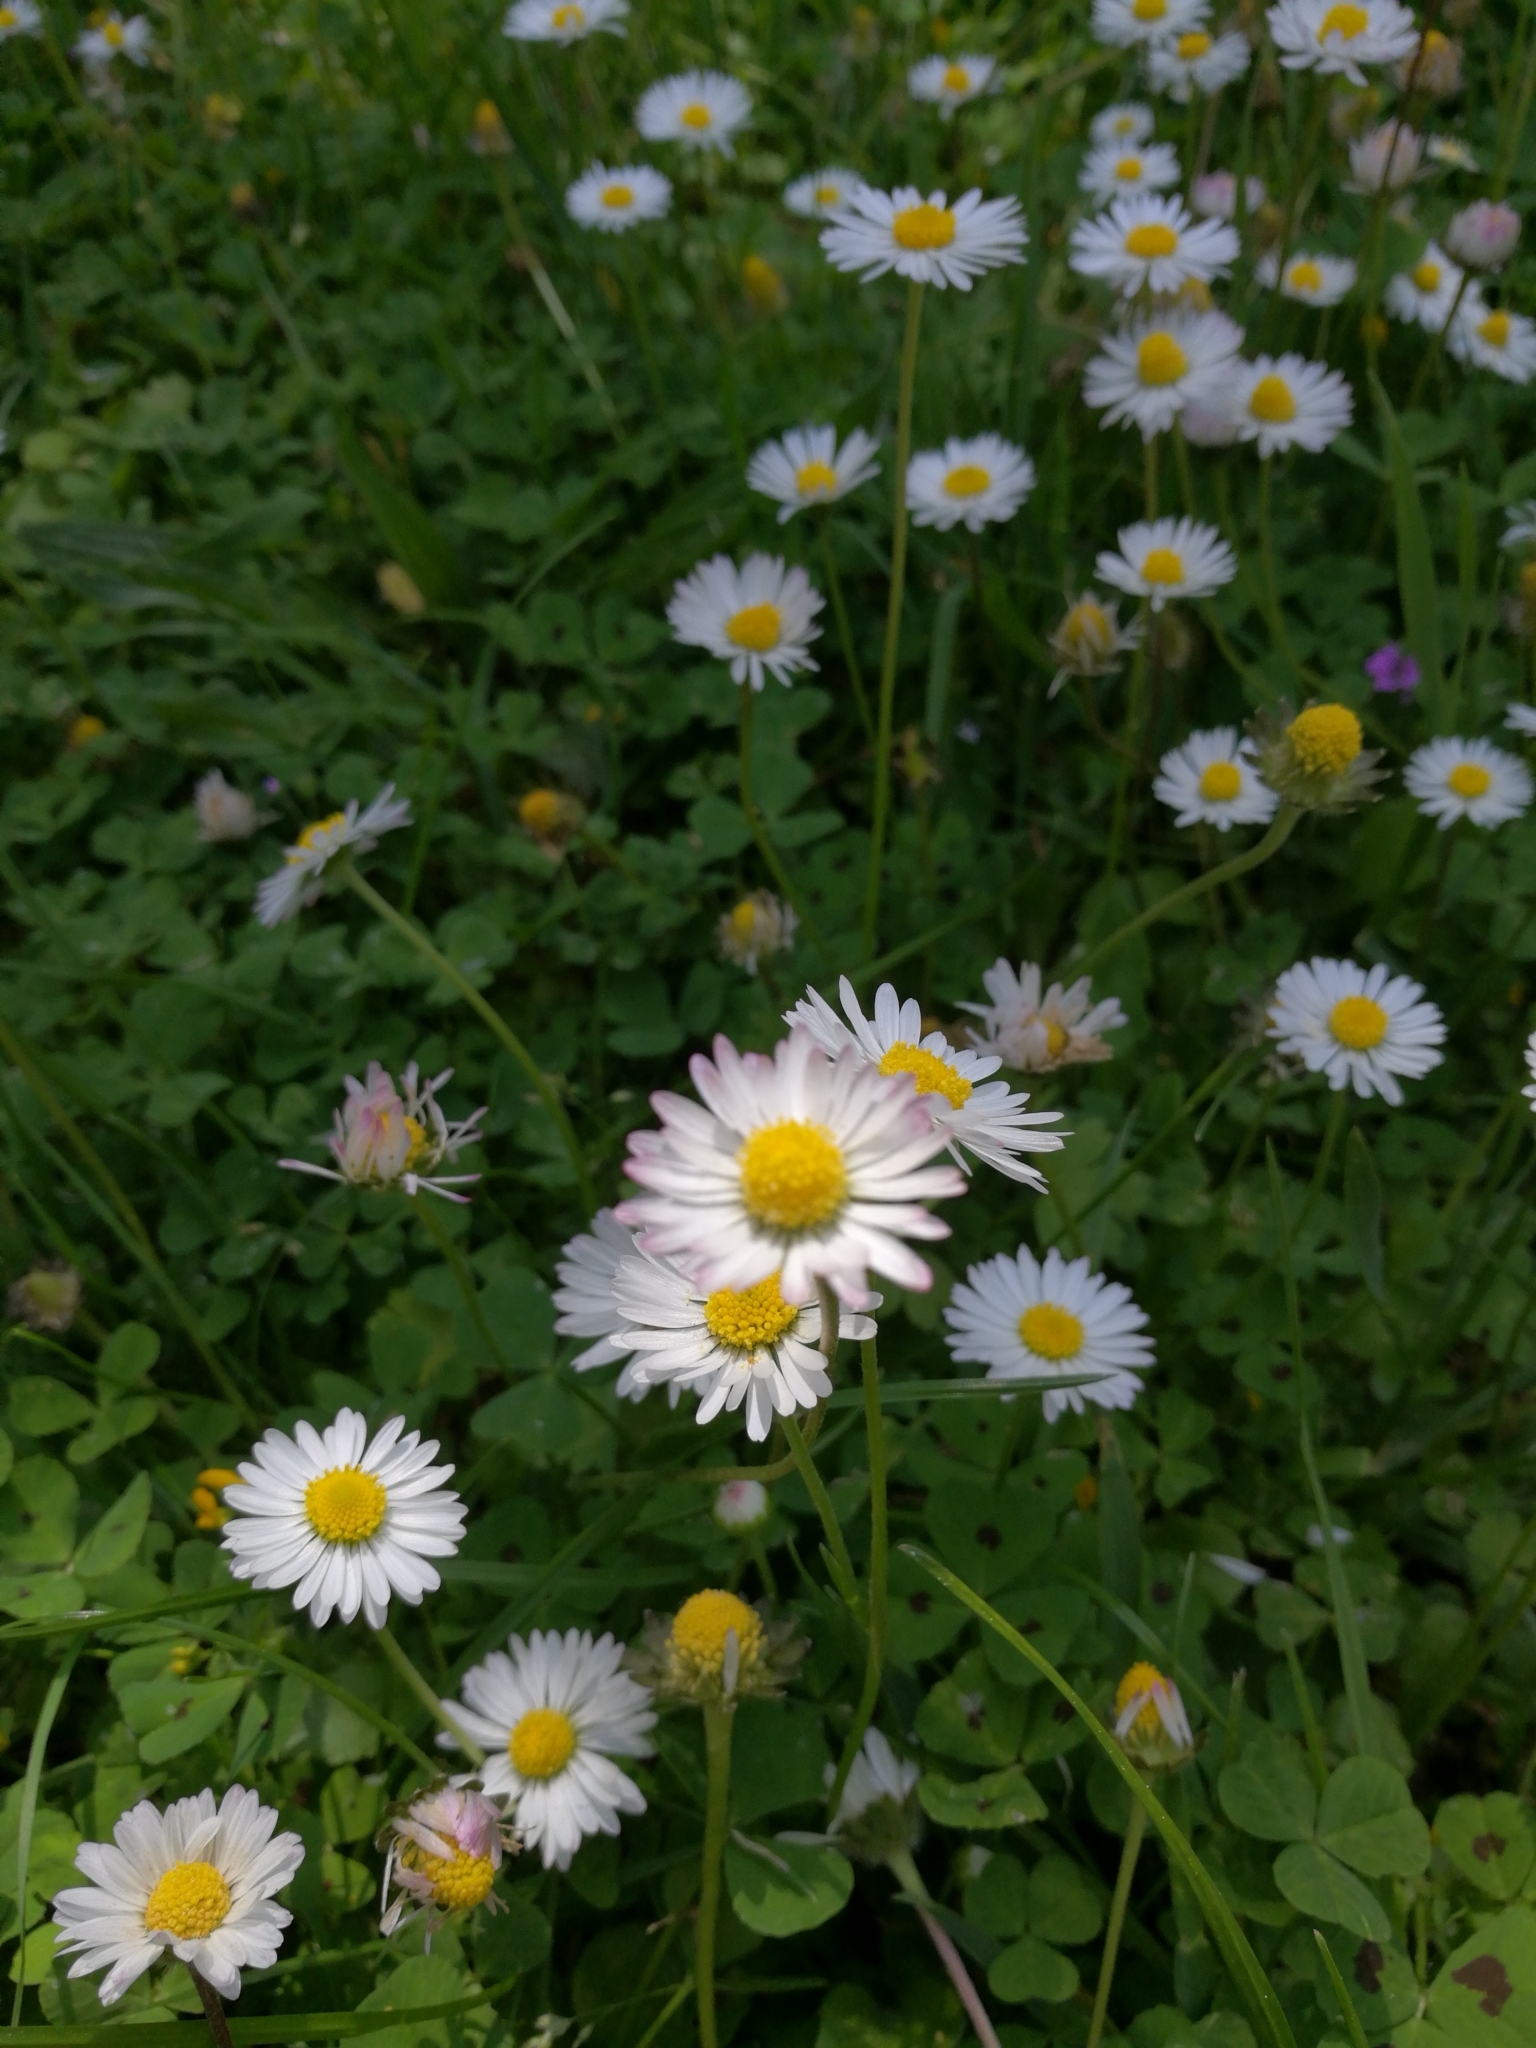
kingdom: Plantae
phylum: Tracheophyta
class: Magnoliopsida
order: Asterales
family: Asteraceae
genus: Bellis
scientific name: Bellis perennis
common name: Lawndaisy
